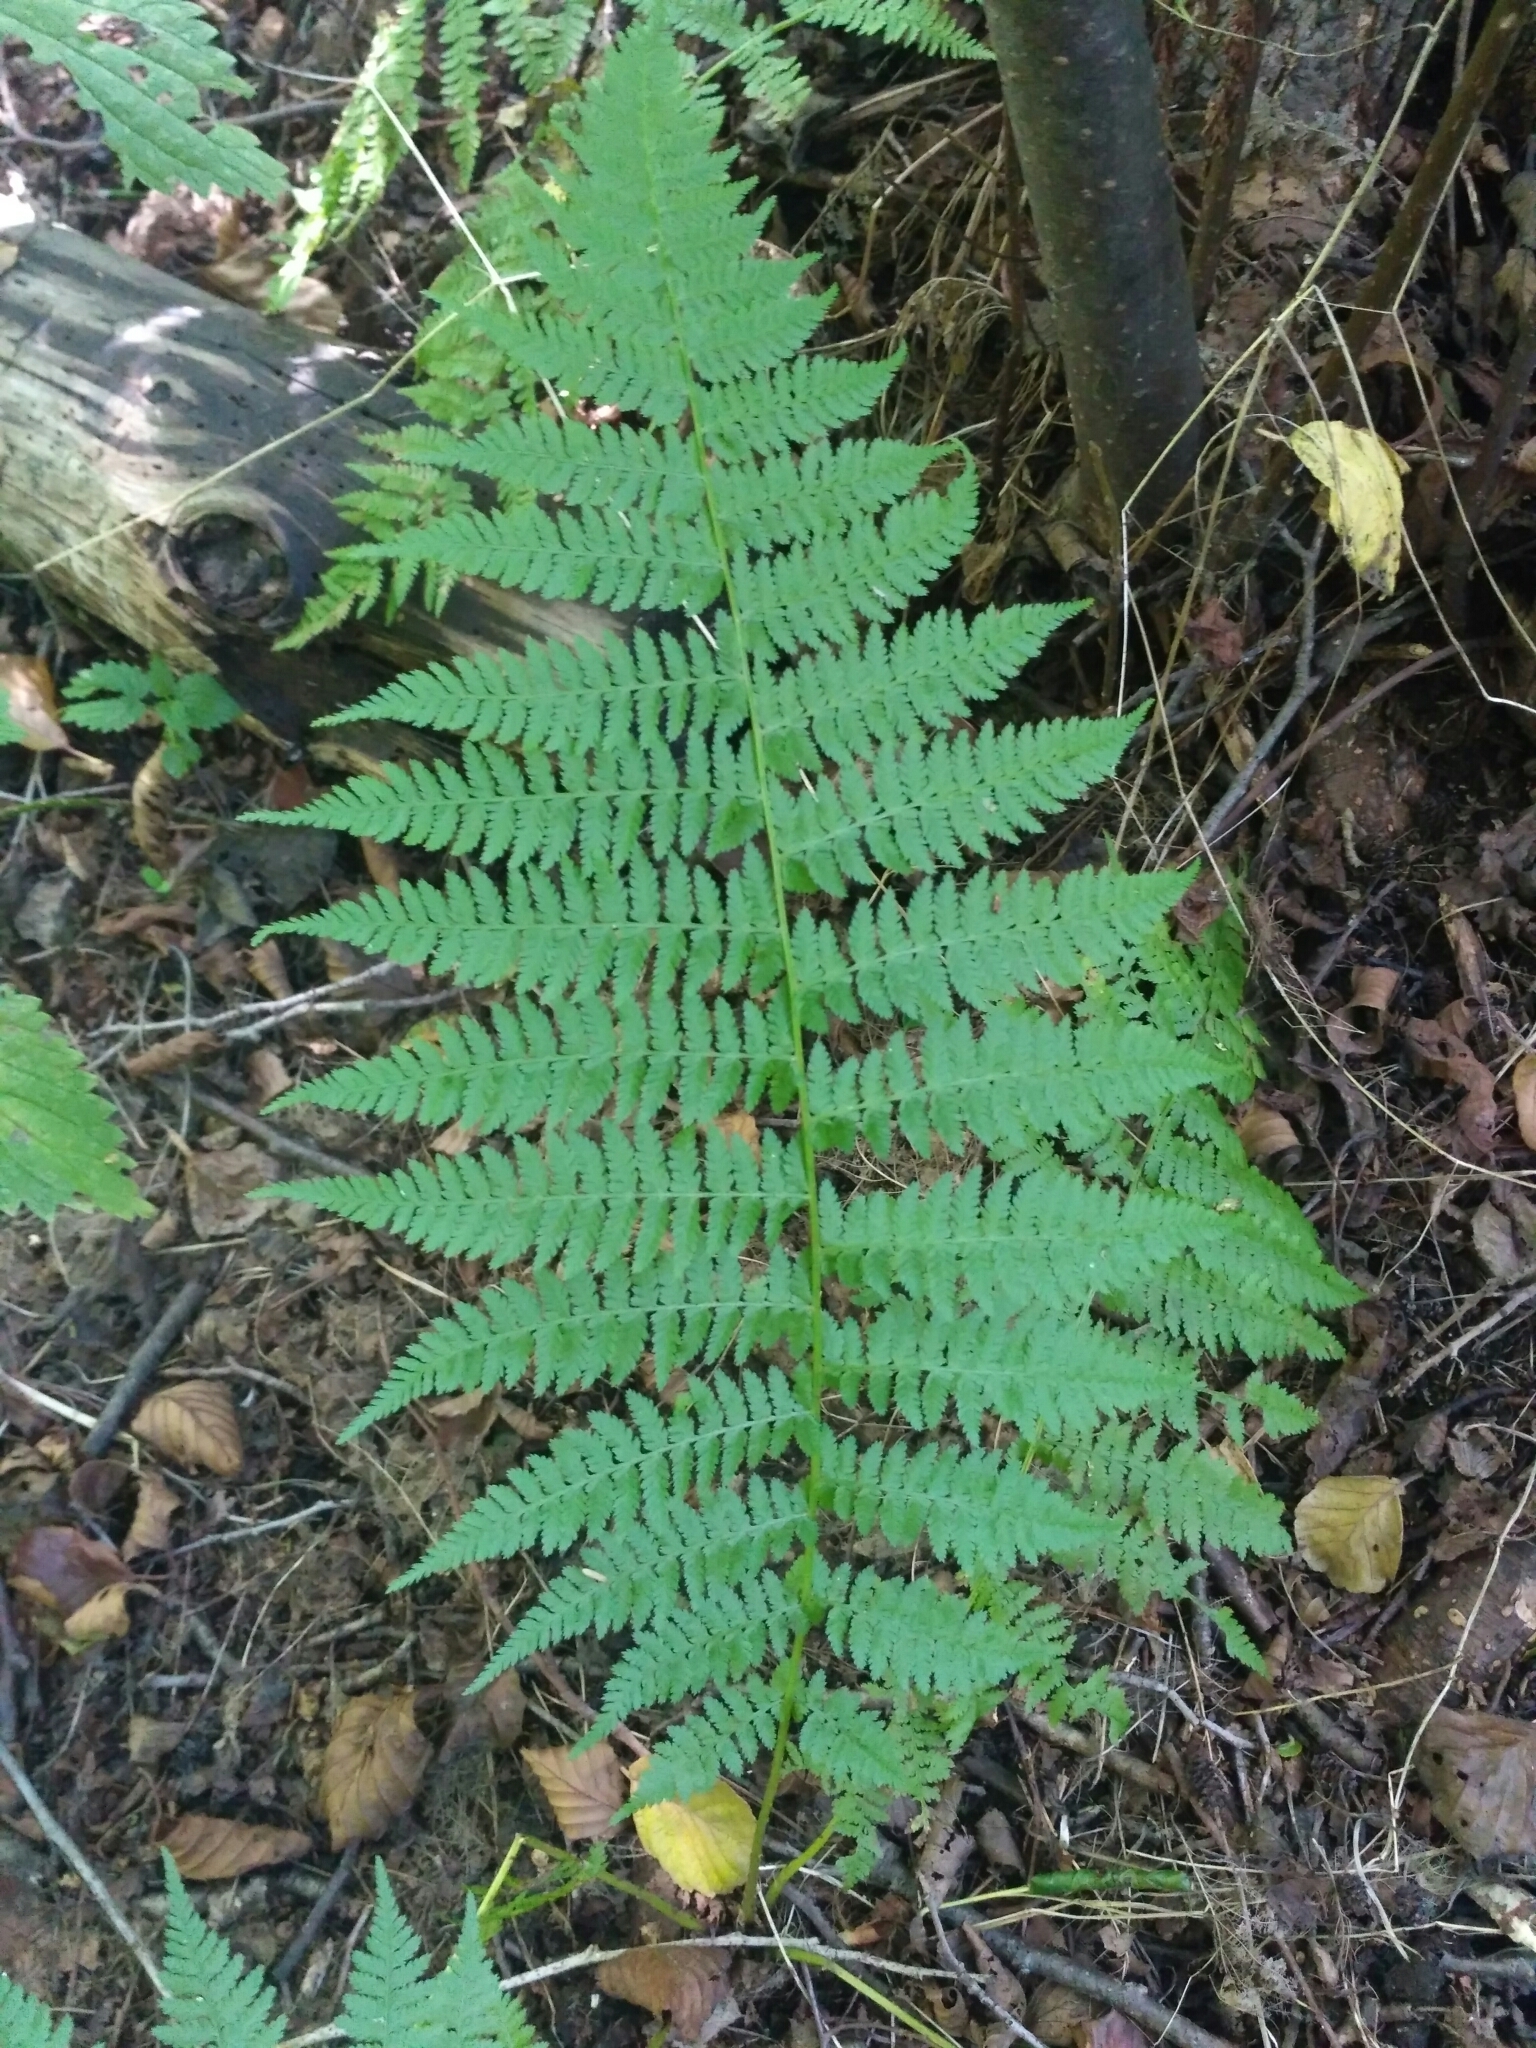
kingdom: Plantae
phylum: Tracheophyta
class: Polypodiopsida
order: Polypodiales
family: Athyriaceae
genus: Athyrium
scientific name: Athyrium filix-femina
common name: Lady fern
